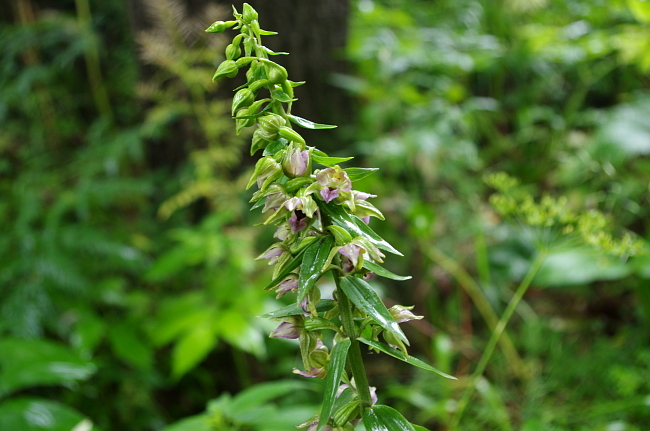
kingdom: Plantae
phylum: Tracheophyta
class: Liliopsida
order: Asparagales
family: Orchidaceae
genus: Epipactis
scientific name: Epipactis helleborine
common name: Broad-leaved helleborine
